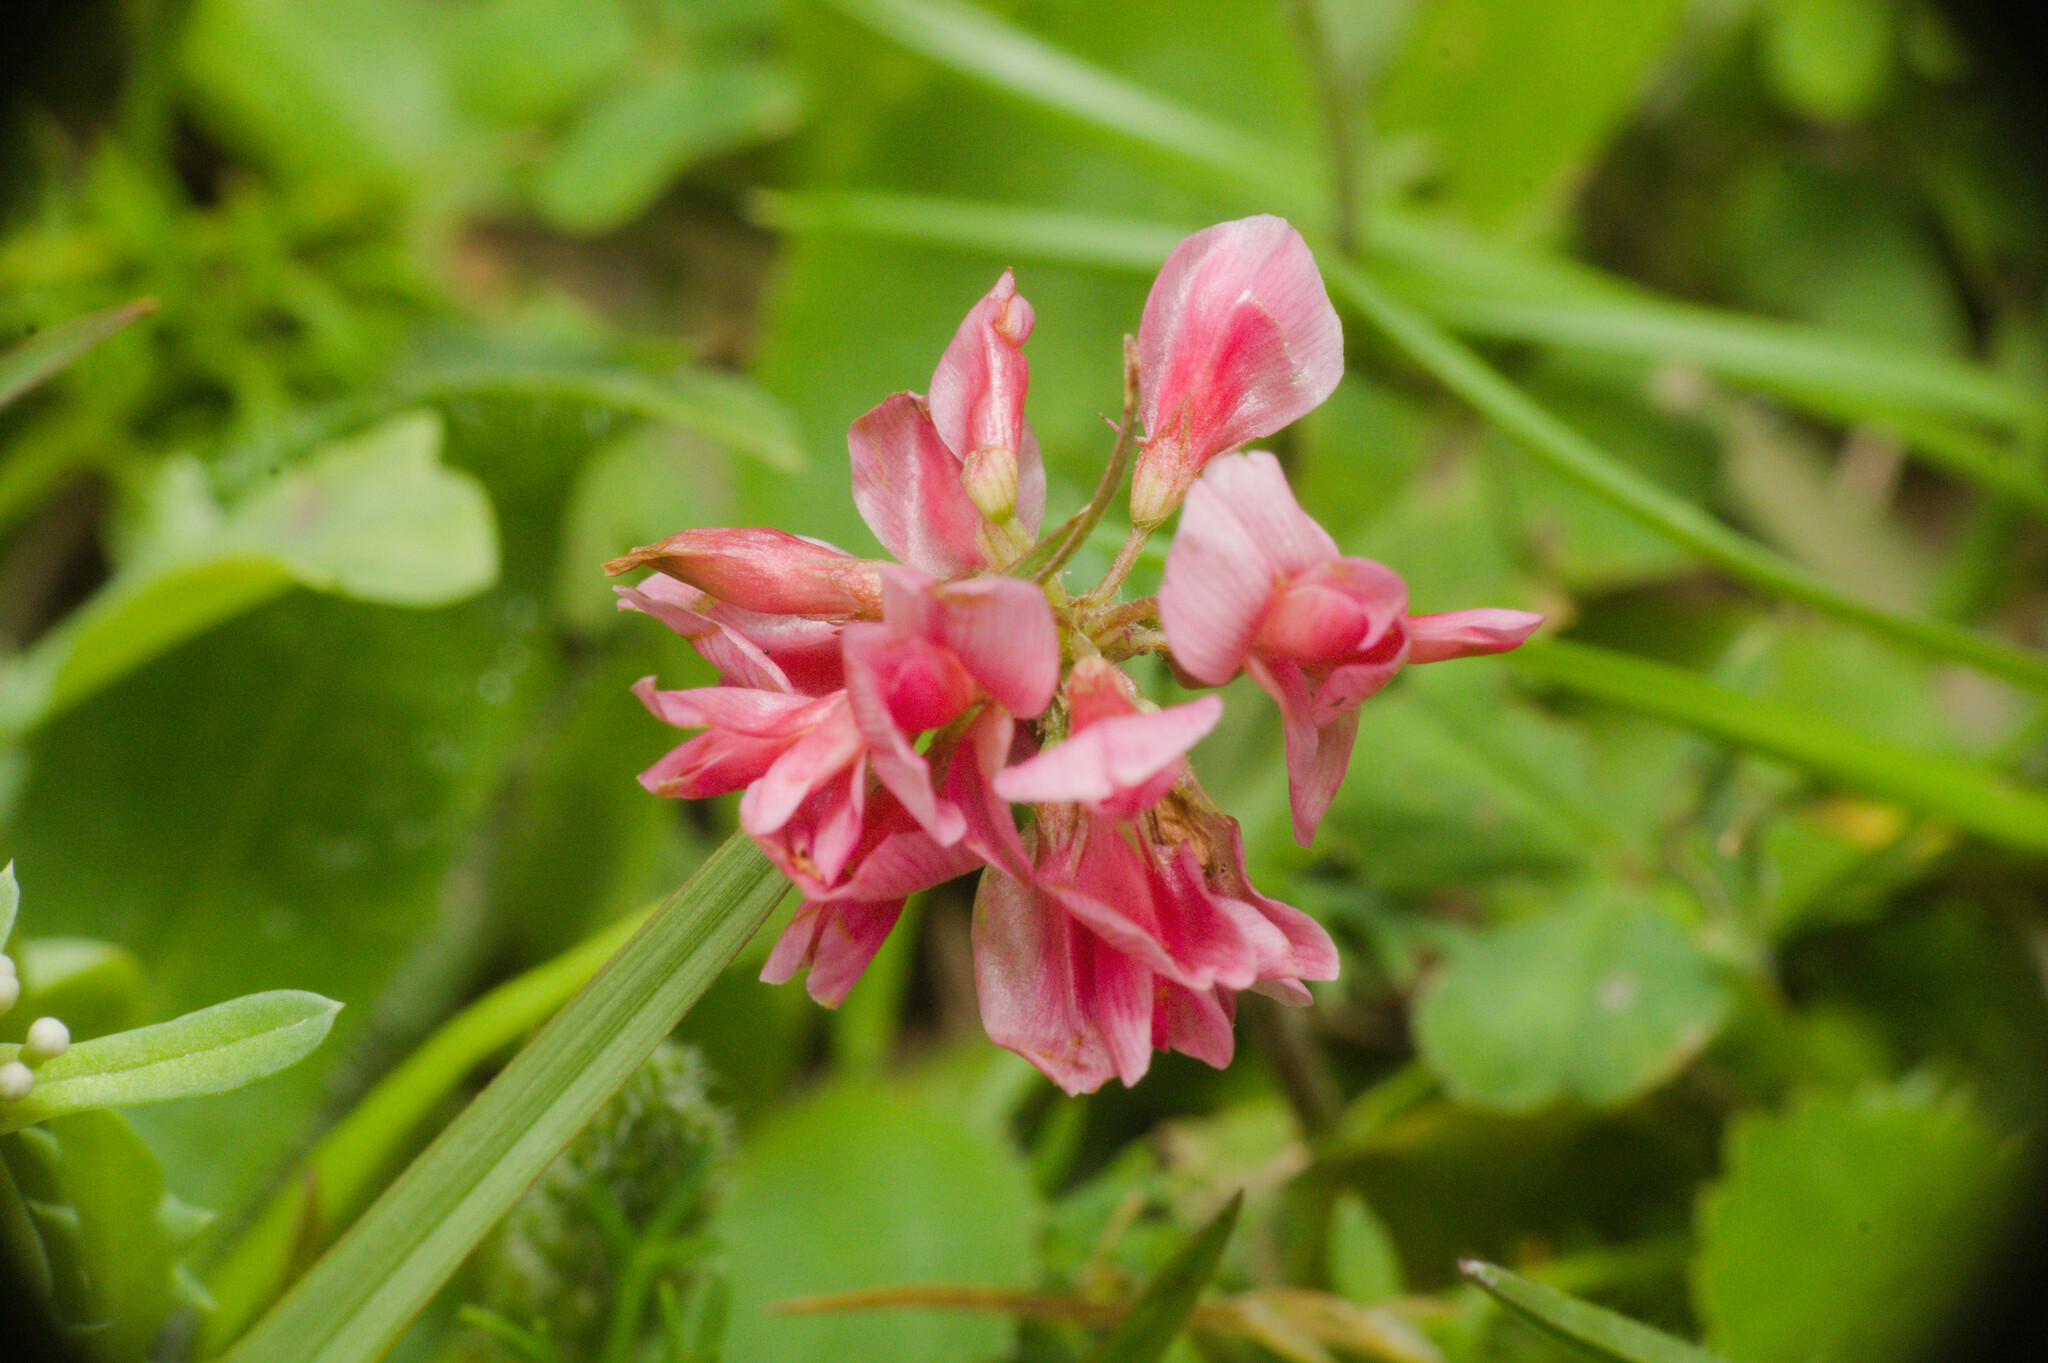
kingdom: Plantae
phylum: Tracheophyta
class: Magnoliopsida
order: Fabales
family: Fabaceae
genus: Trifolium
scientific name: Trifolium polymorphum
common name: Peanut clover
